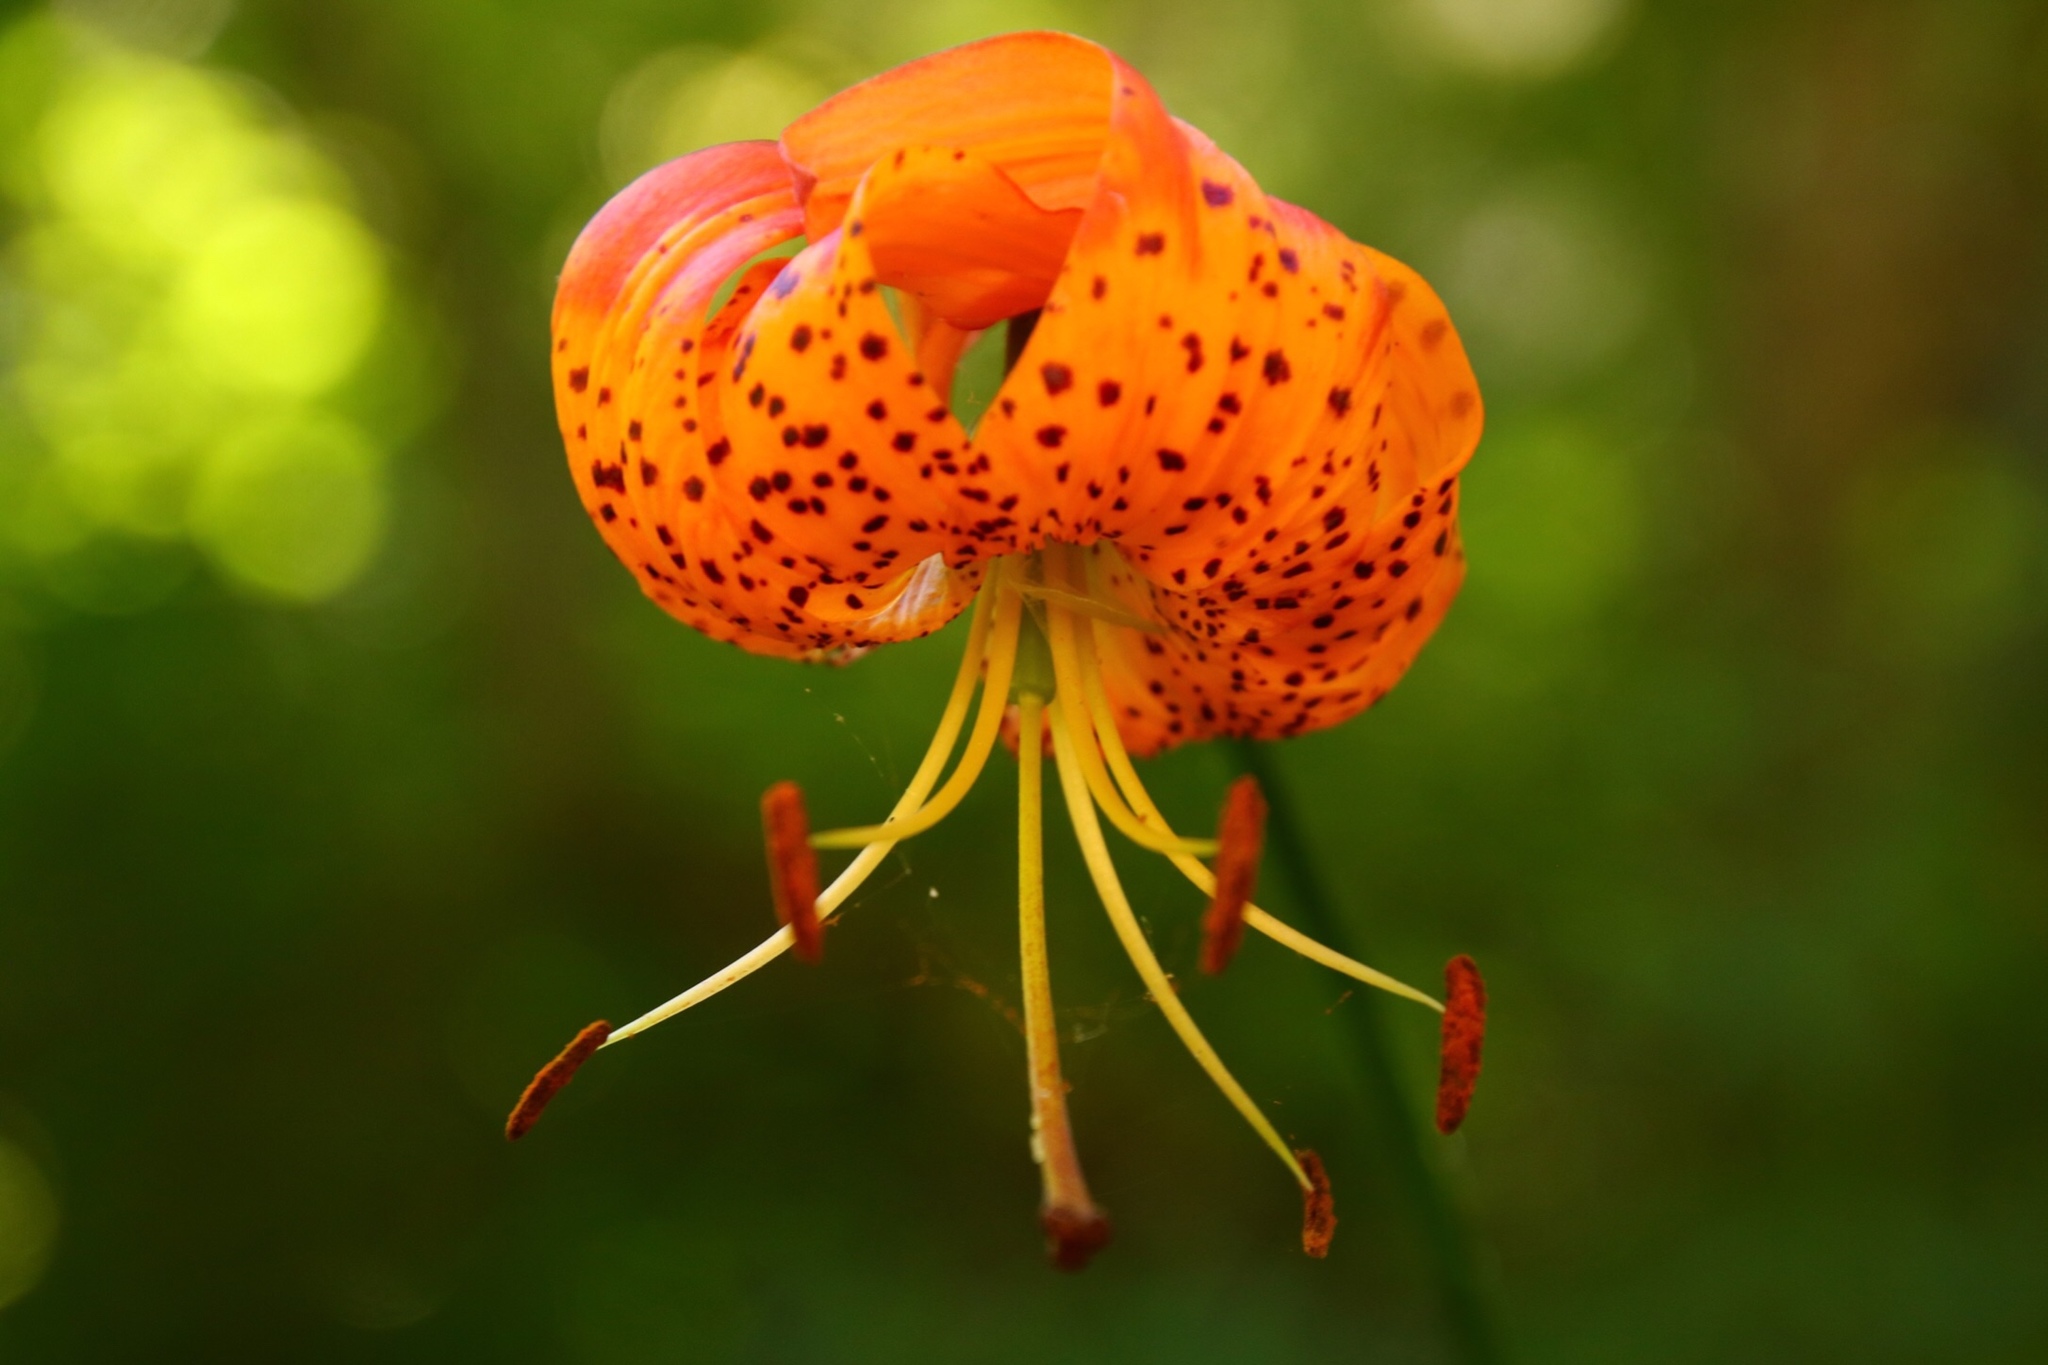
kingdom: Plantae
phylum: Tracheophyta
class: Liliopsida
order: Liliales
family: Liliaceae
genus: Lilium
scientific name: Lilium pardalinum
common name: Panther lily
